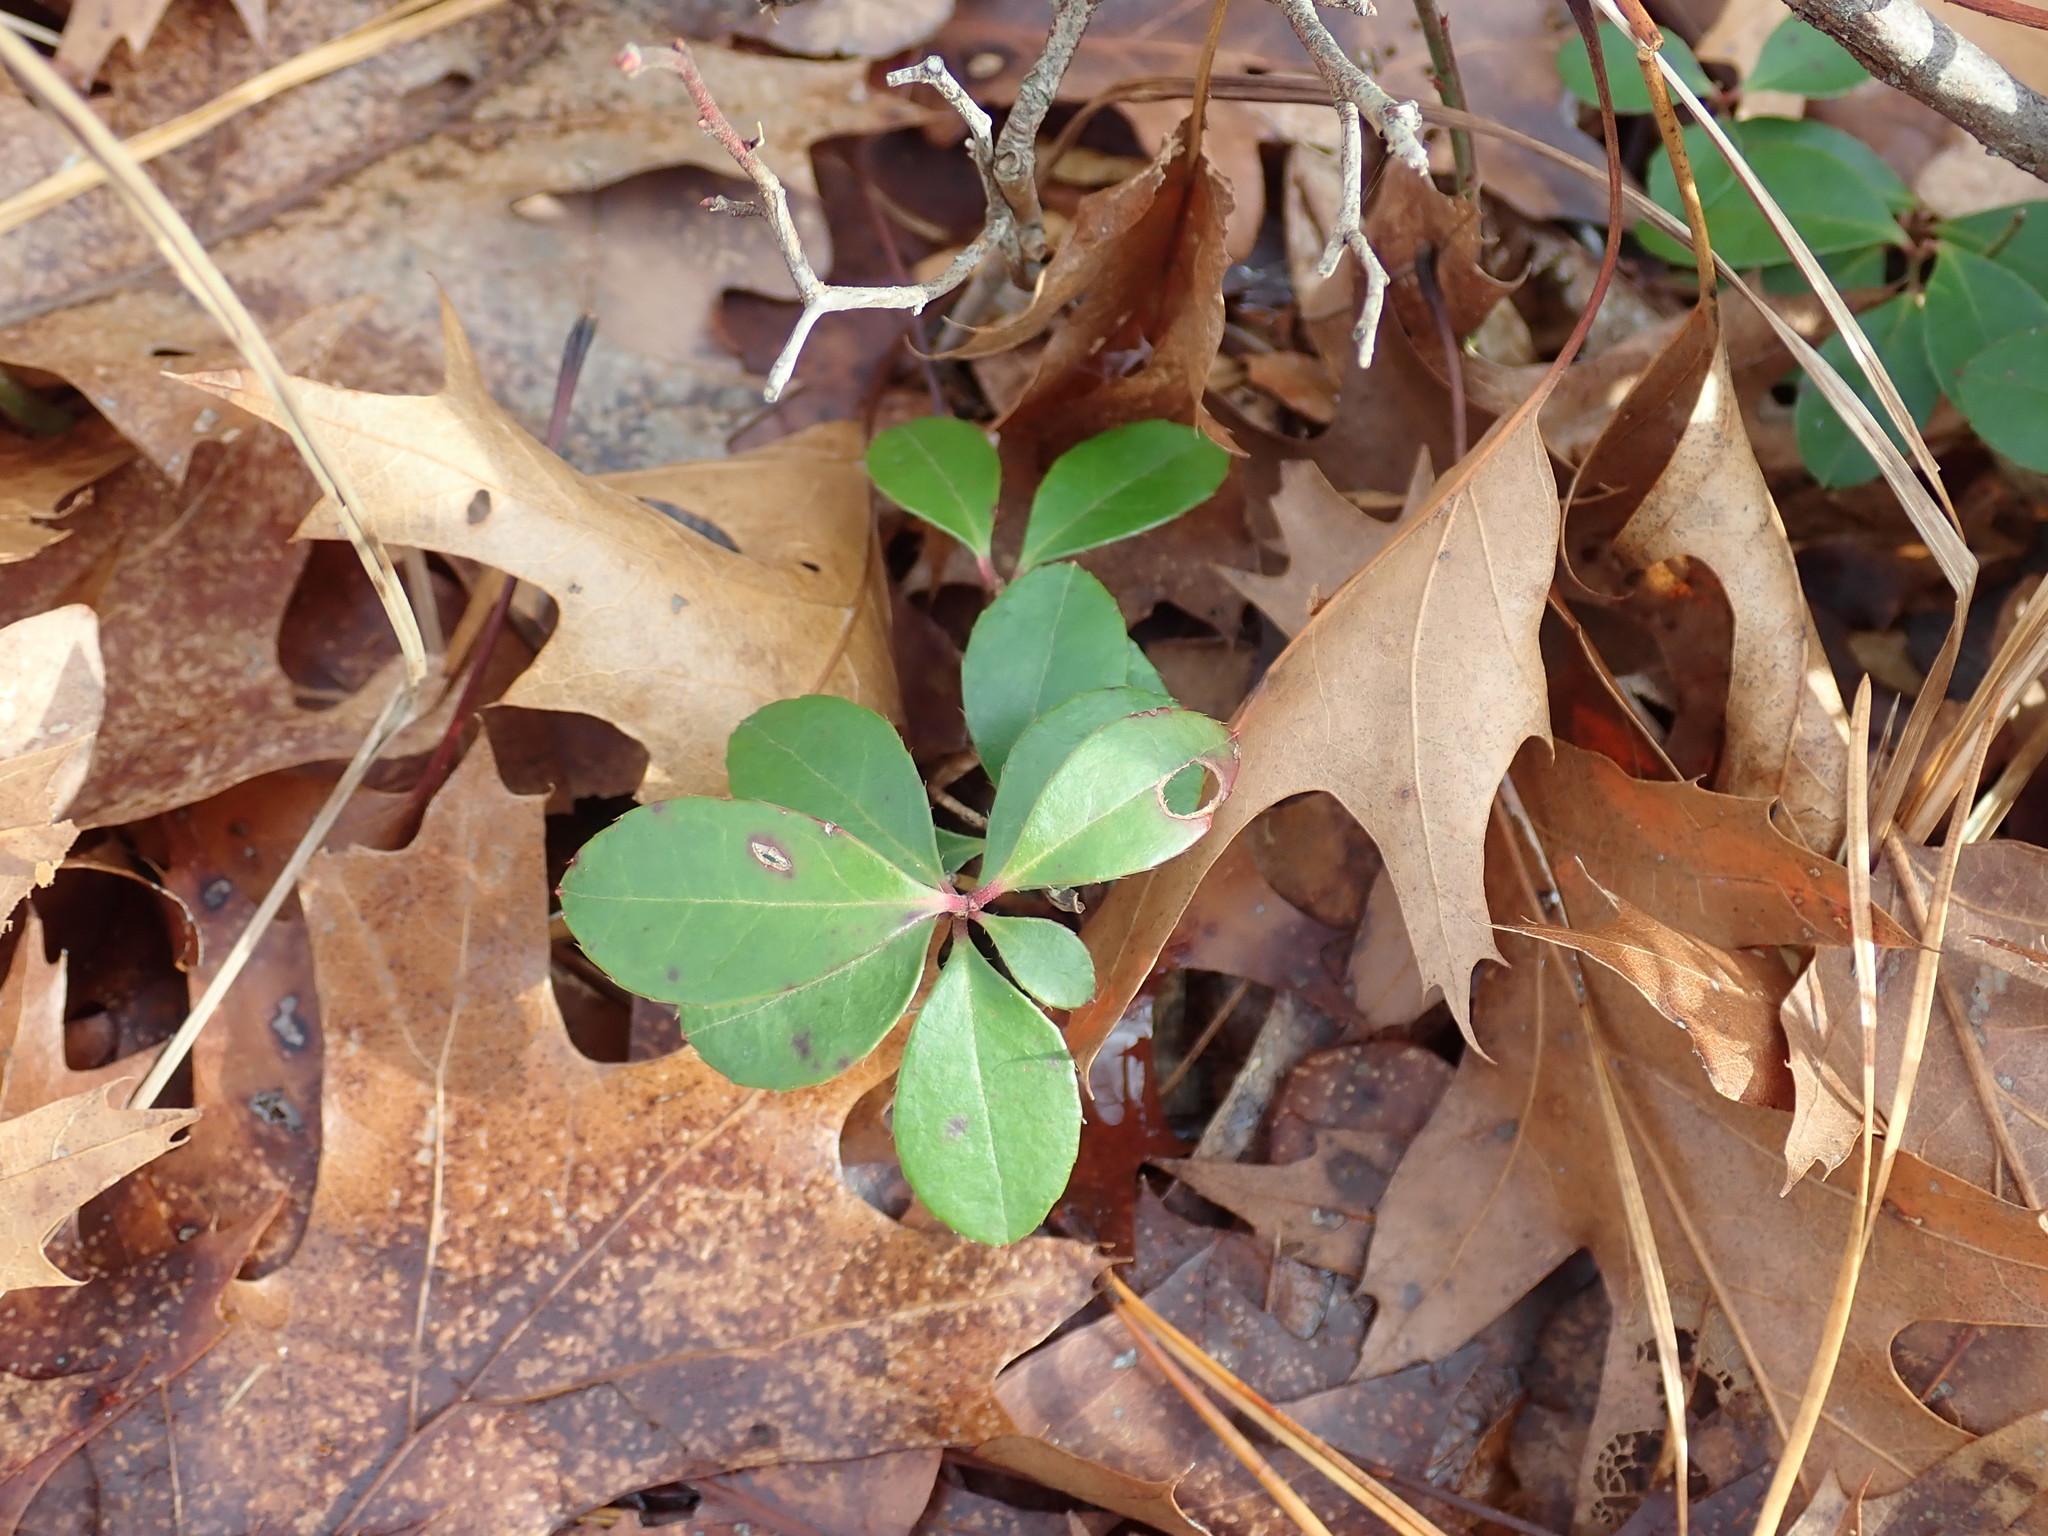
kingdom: Plantae
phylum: Tracheophyta
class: Magnoliopsida
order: Ericales
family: Ericaceae
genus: Gaultheria
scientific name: Gaultheria procumbens
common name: Checkerberry
